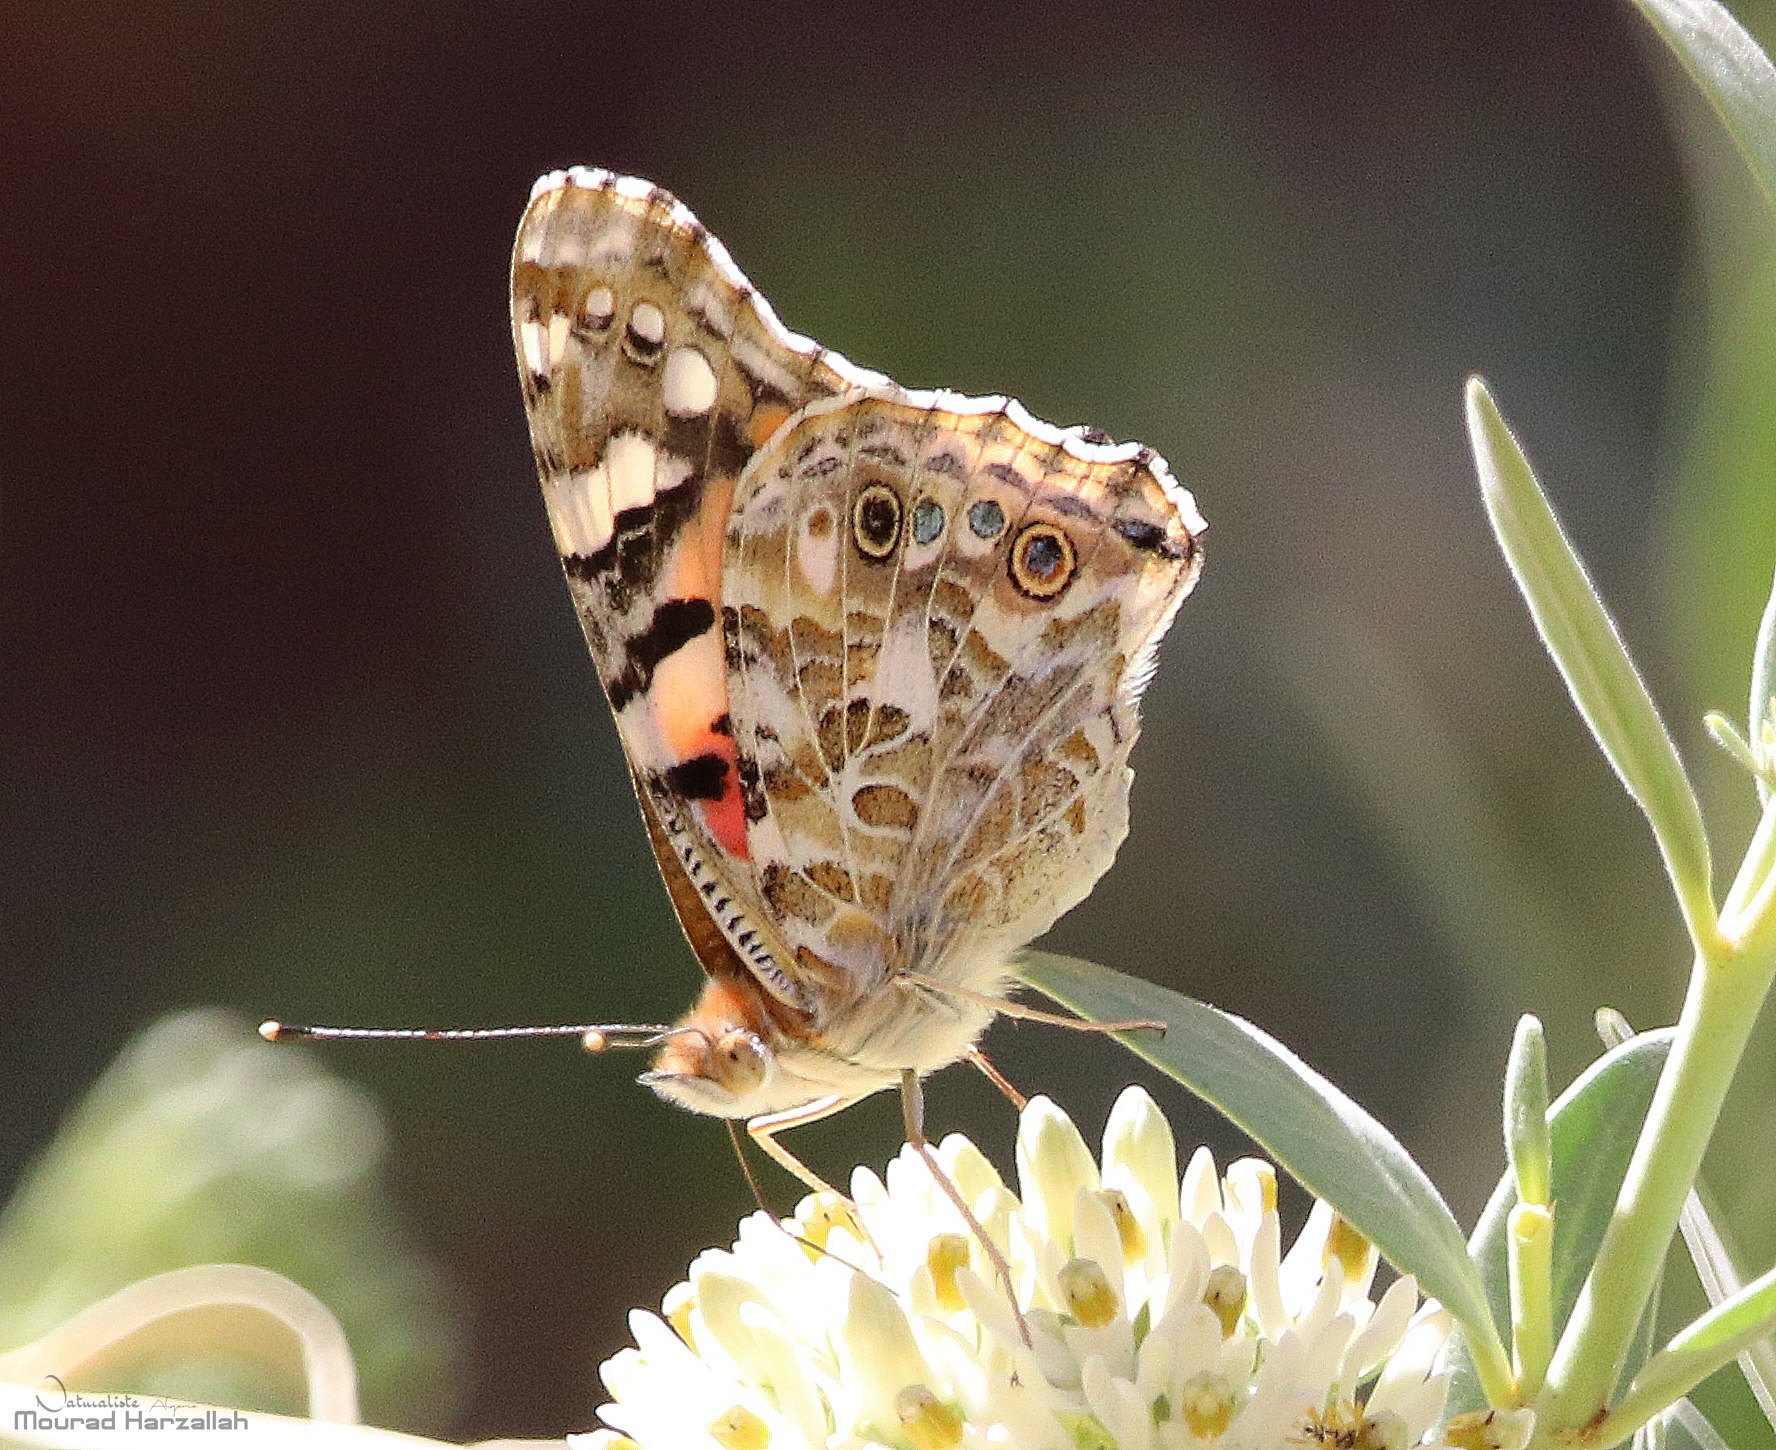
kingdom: Animalia
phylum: Arthropoda
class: Insecta
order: Lepidoptera
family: Nymphalidae
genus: Vanessa
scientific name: Vanessa cardui
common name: Painted lady
